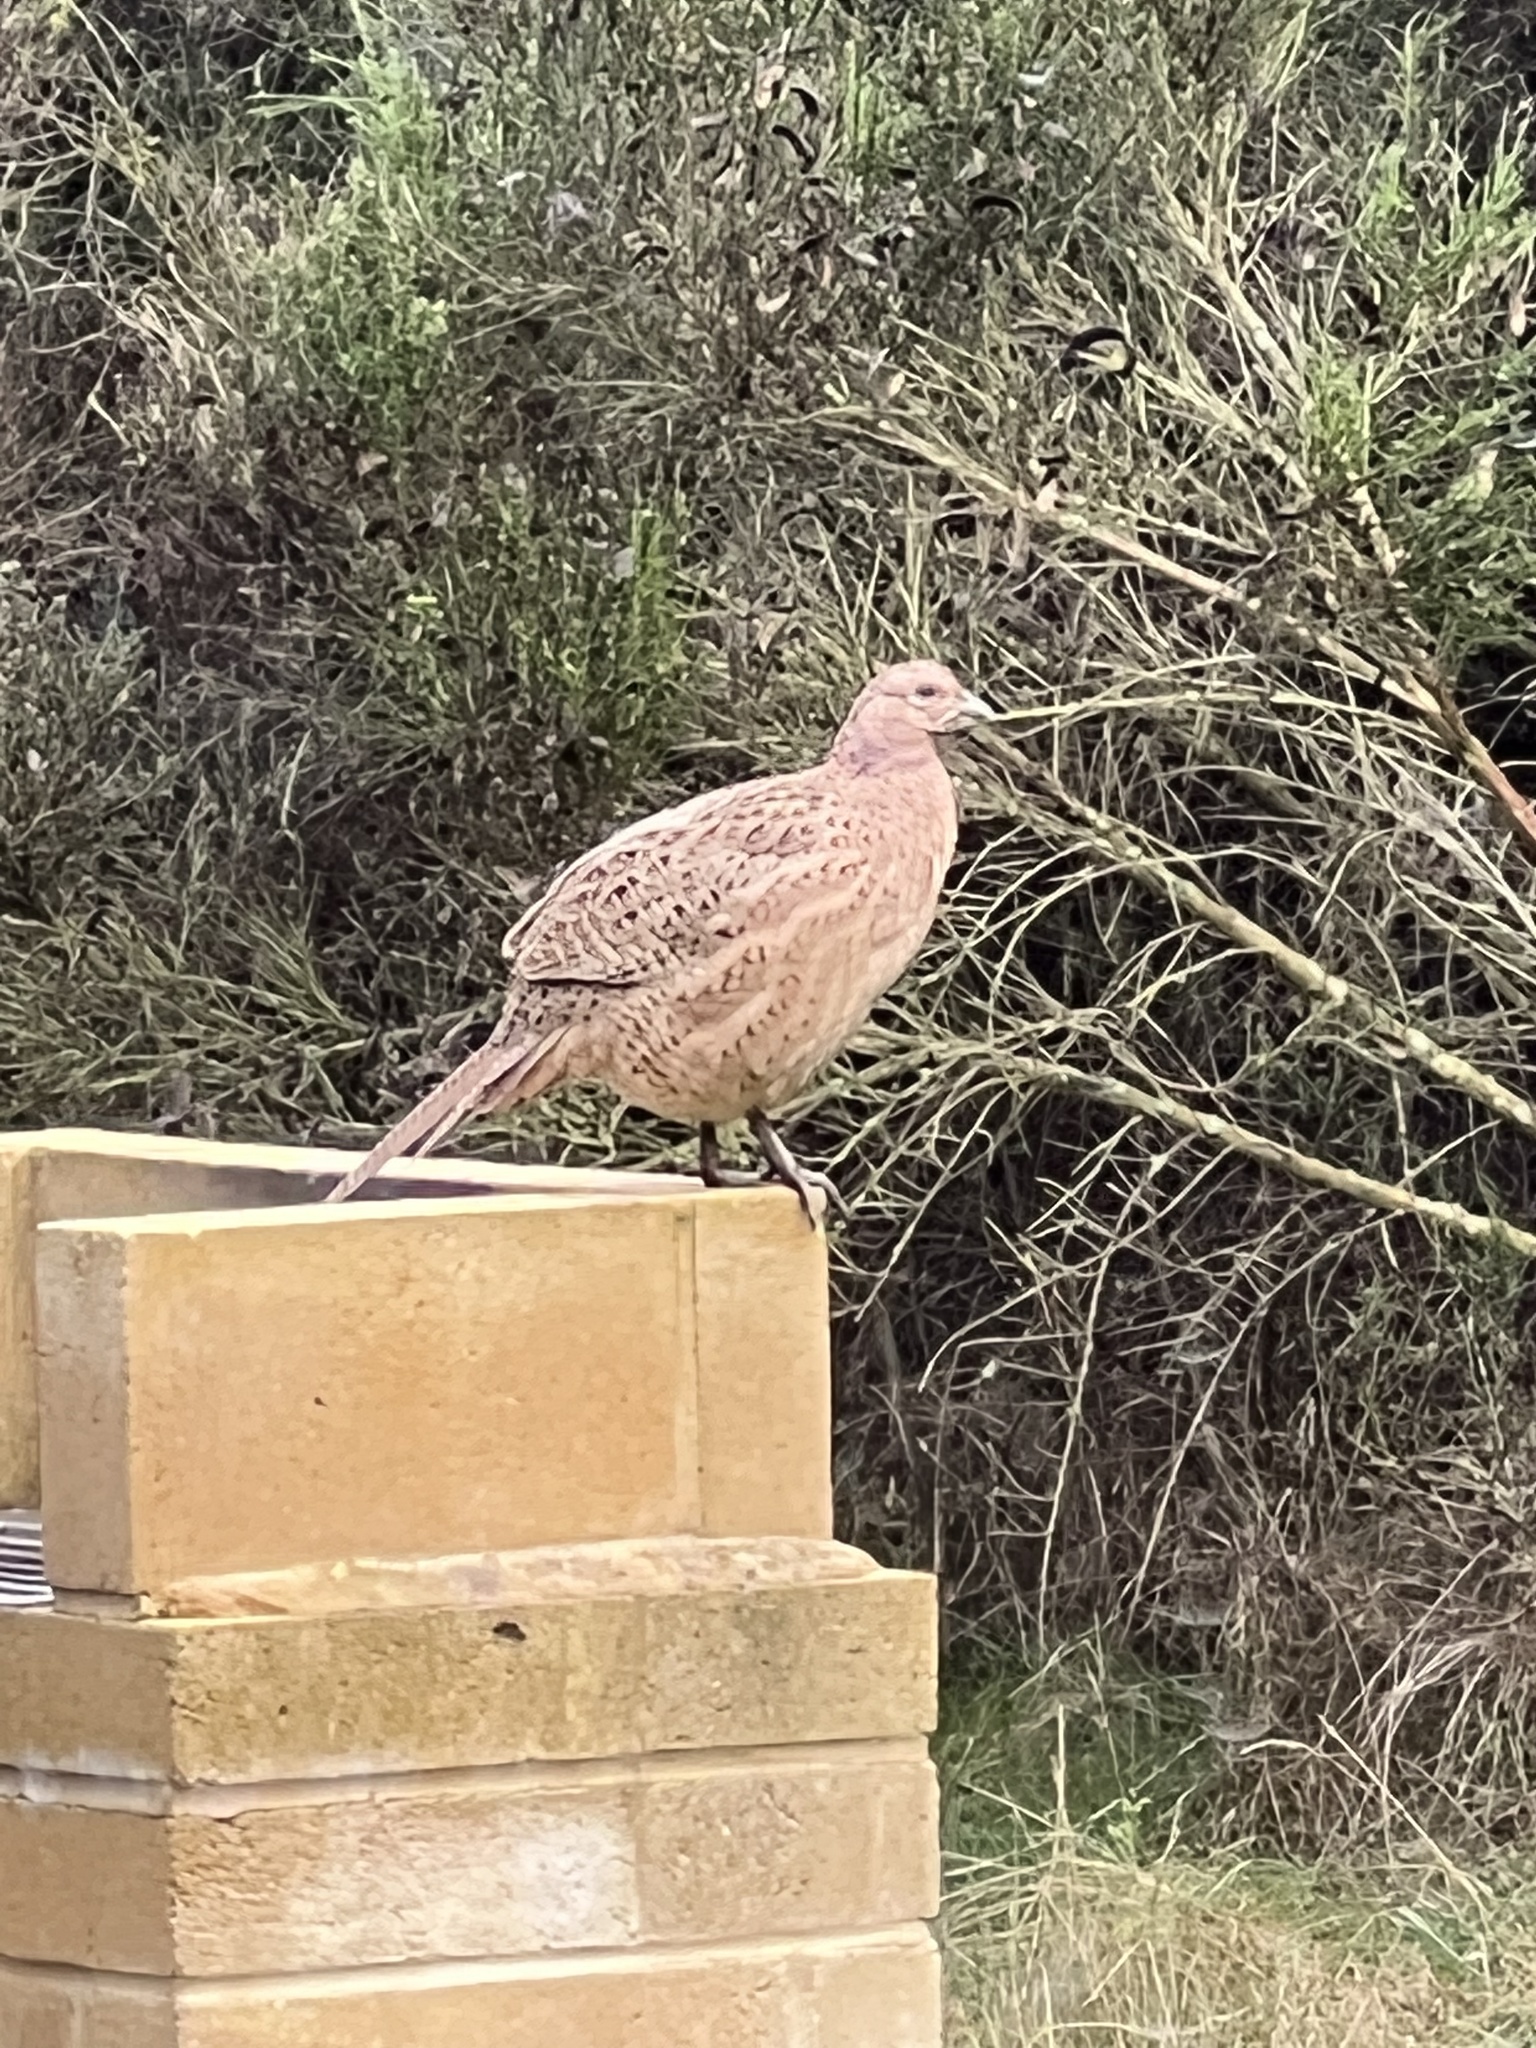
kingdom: Animalia
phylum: Chordata
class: Aves
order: Galliformes
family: Phasianidae
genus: Phasianus
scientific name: Phasianus colchicus
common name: Common pheasant
